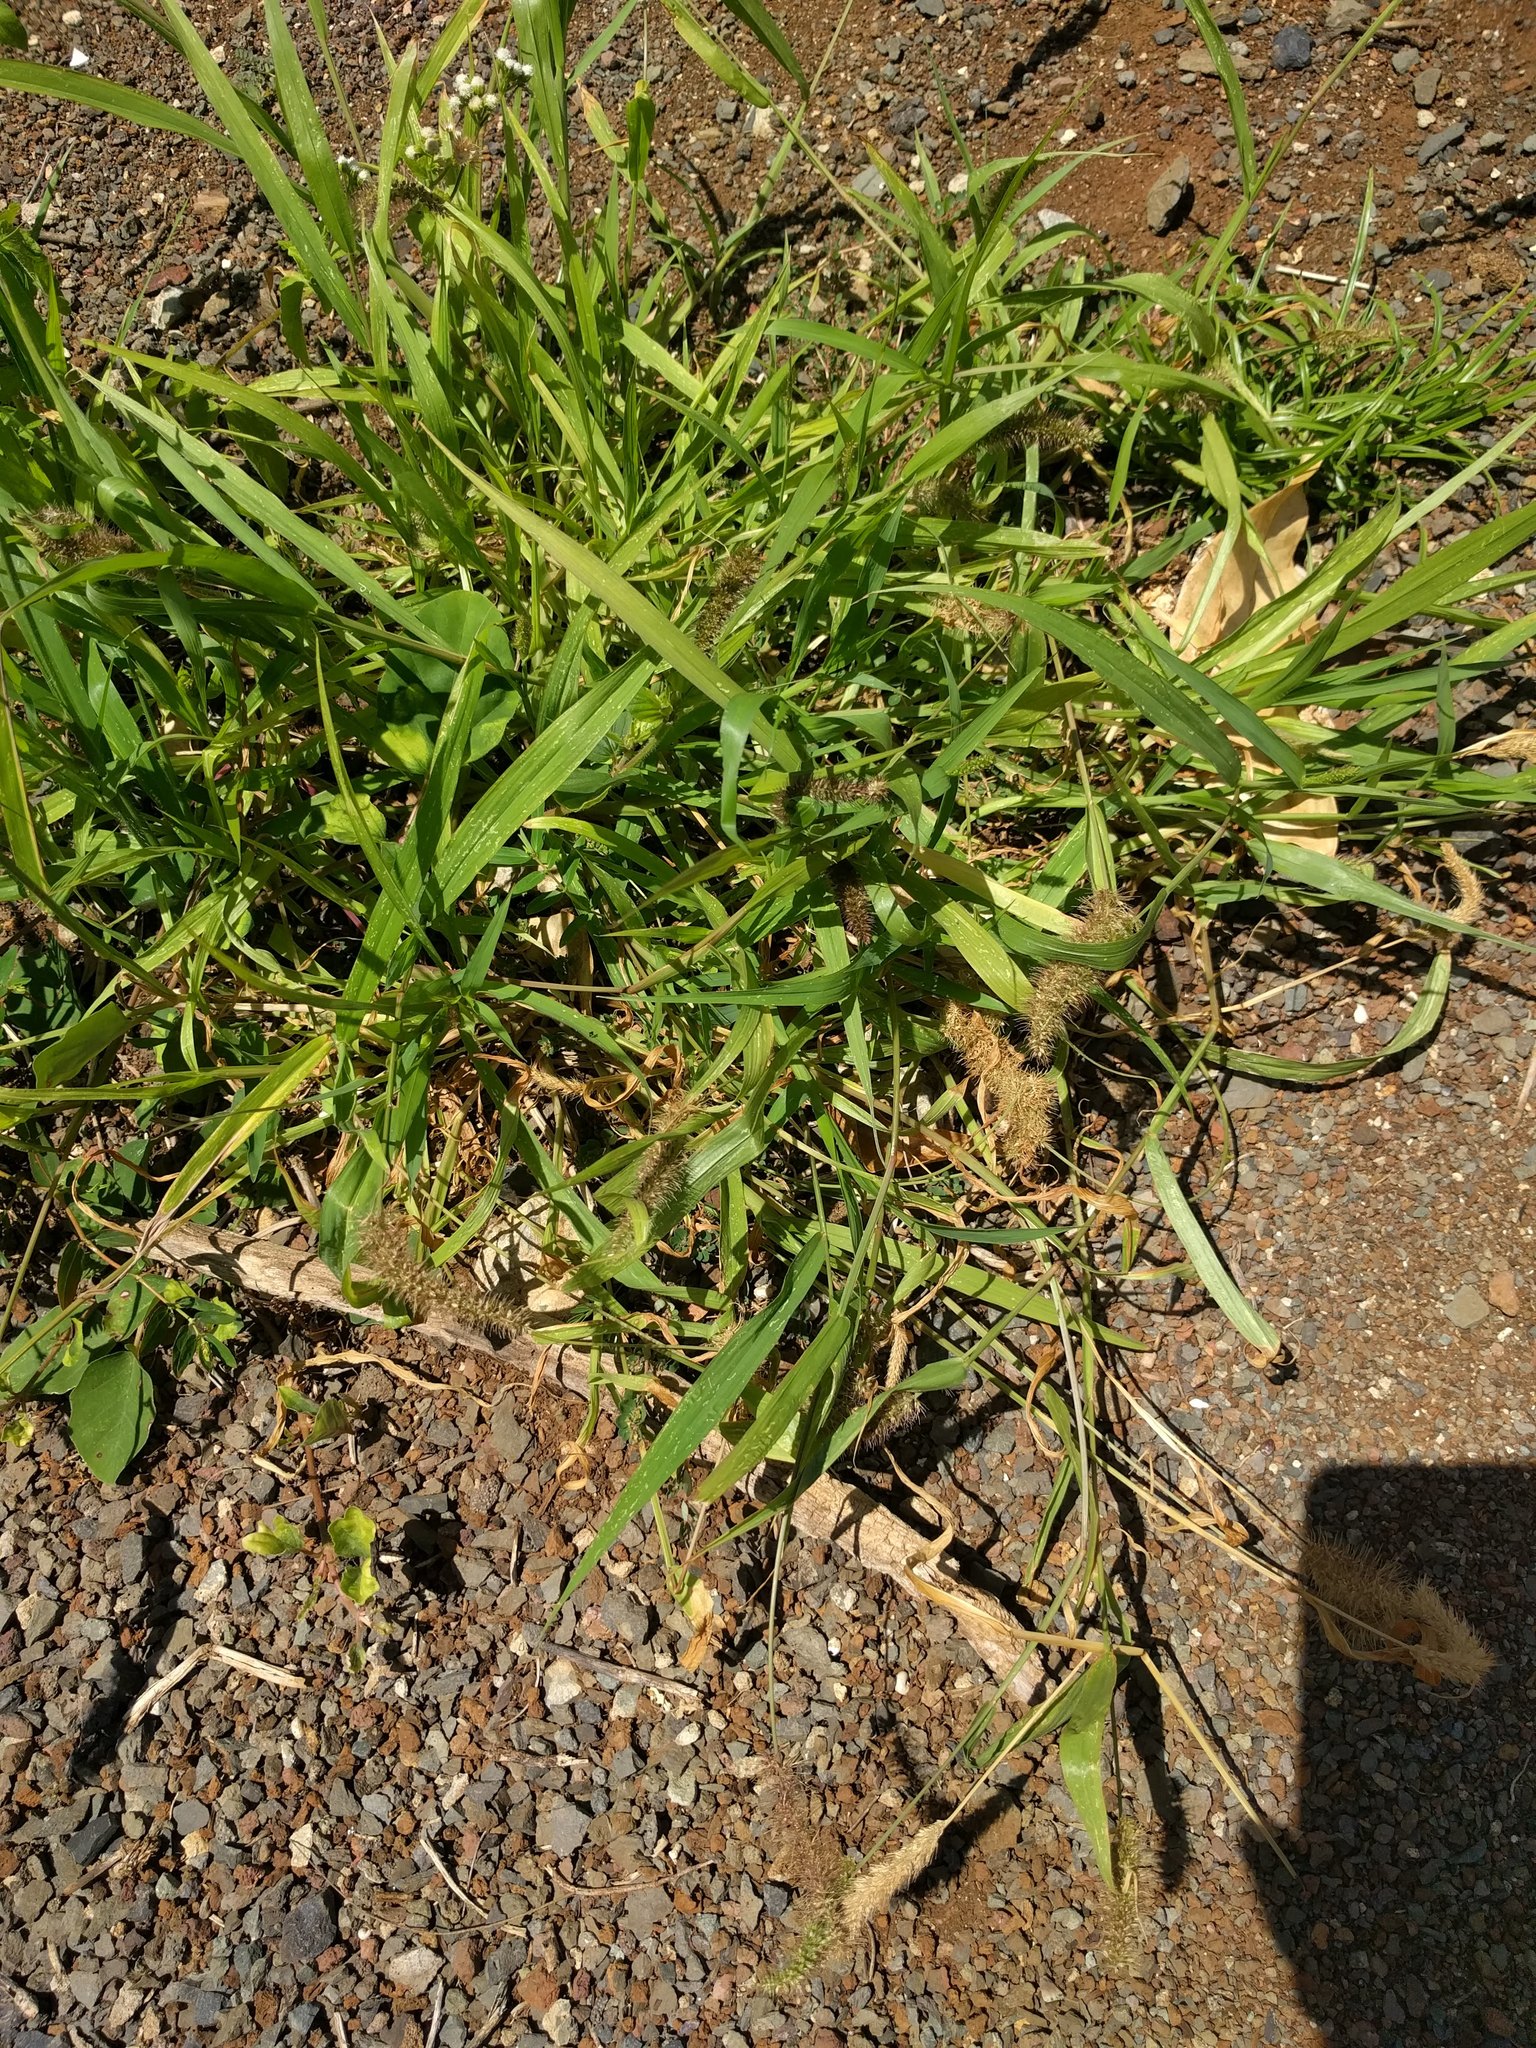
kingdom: Plantae
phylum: Tracheophyta
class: Liliopsida
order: Poales
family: Poaceae
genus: Setaria
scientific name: Setaria adhaerens
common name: Adherent bristle-grass
